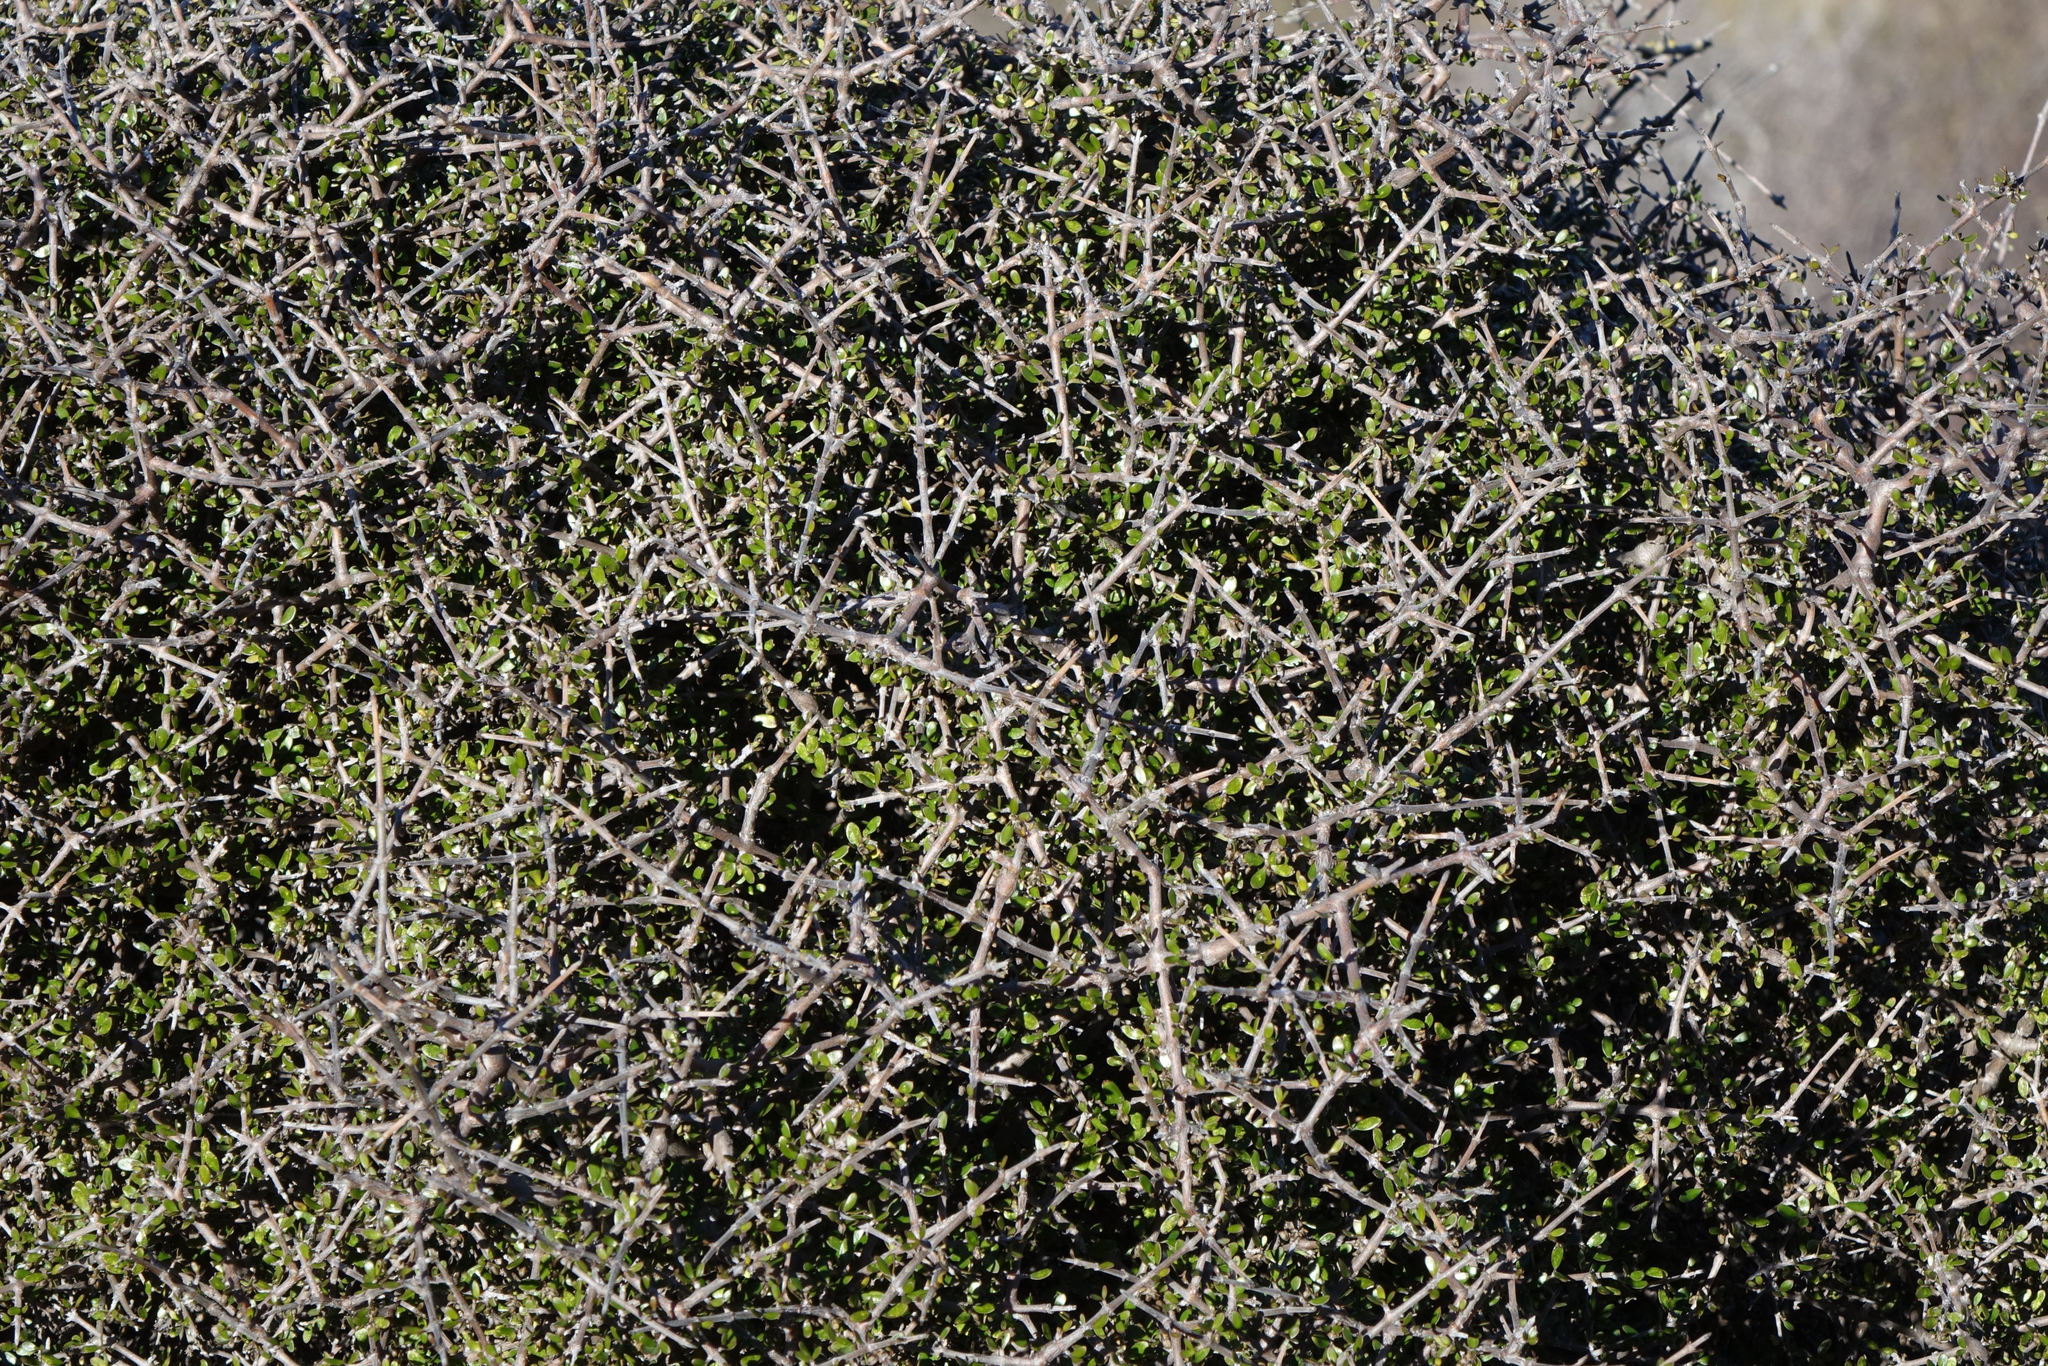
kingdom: Plantae
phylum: Tracheophyta
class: Magnoliopsida
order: Gentianales
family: Rubiaceae
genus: Coprosma
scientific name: Coprosma propinqua
